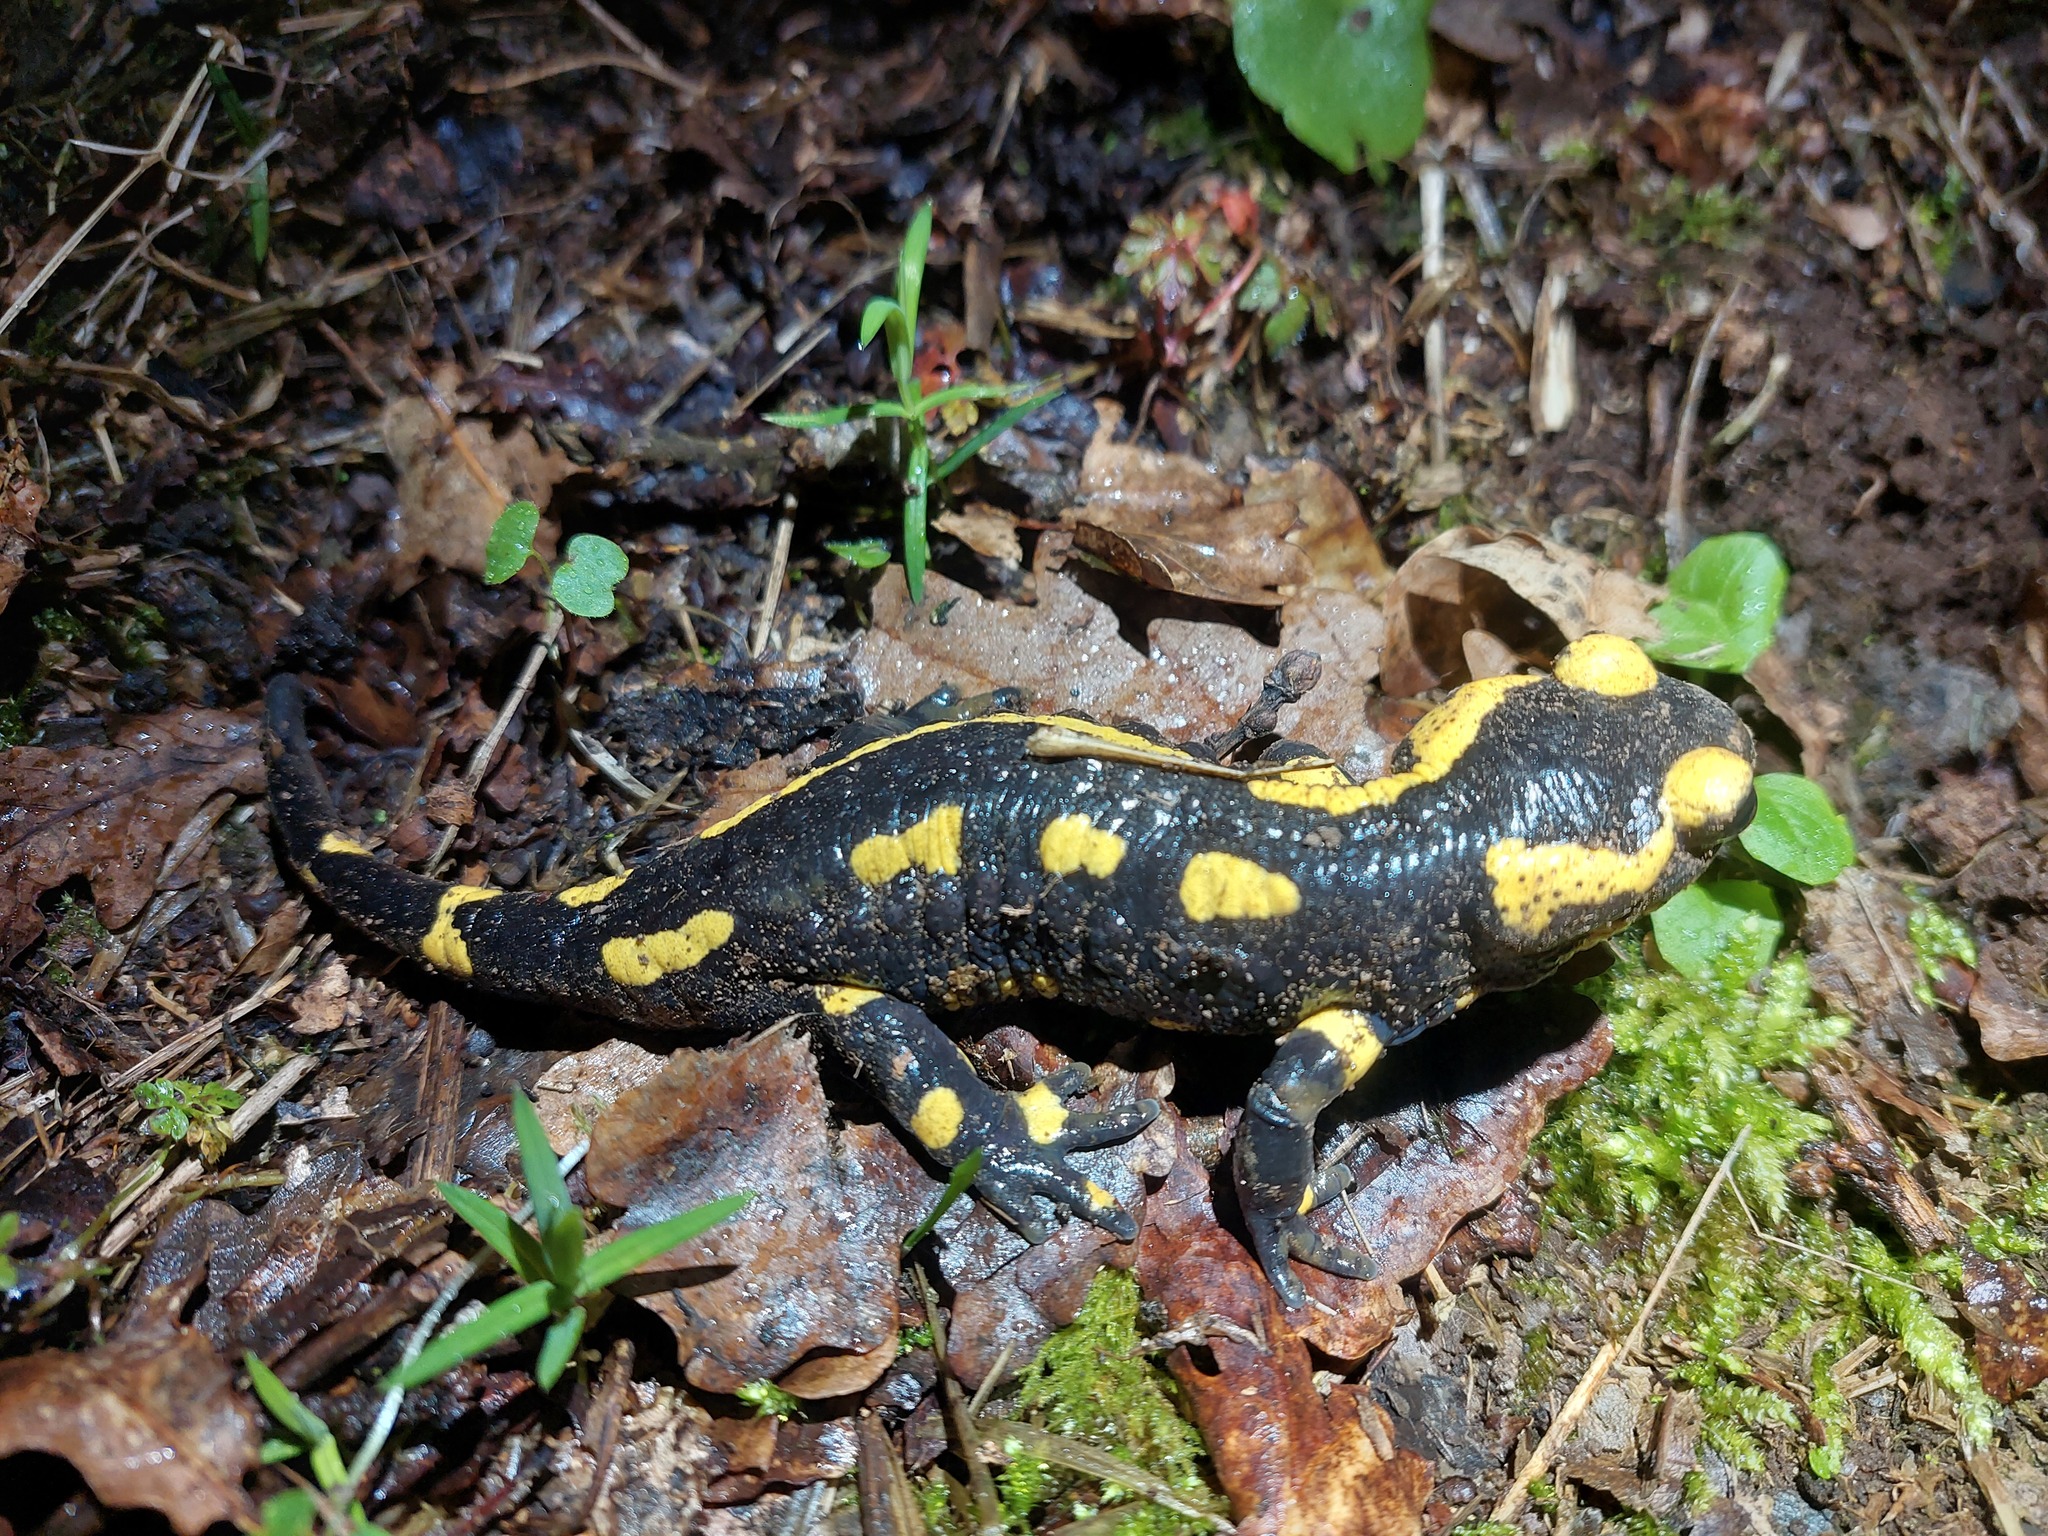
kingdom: Animalia
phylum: Chordata
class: Amphibia
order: Caudata
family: Salamandridae
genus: Salamandra
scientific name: Salamandra salamandra
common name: Fire salamander
